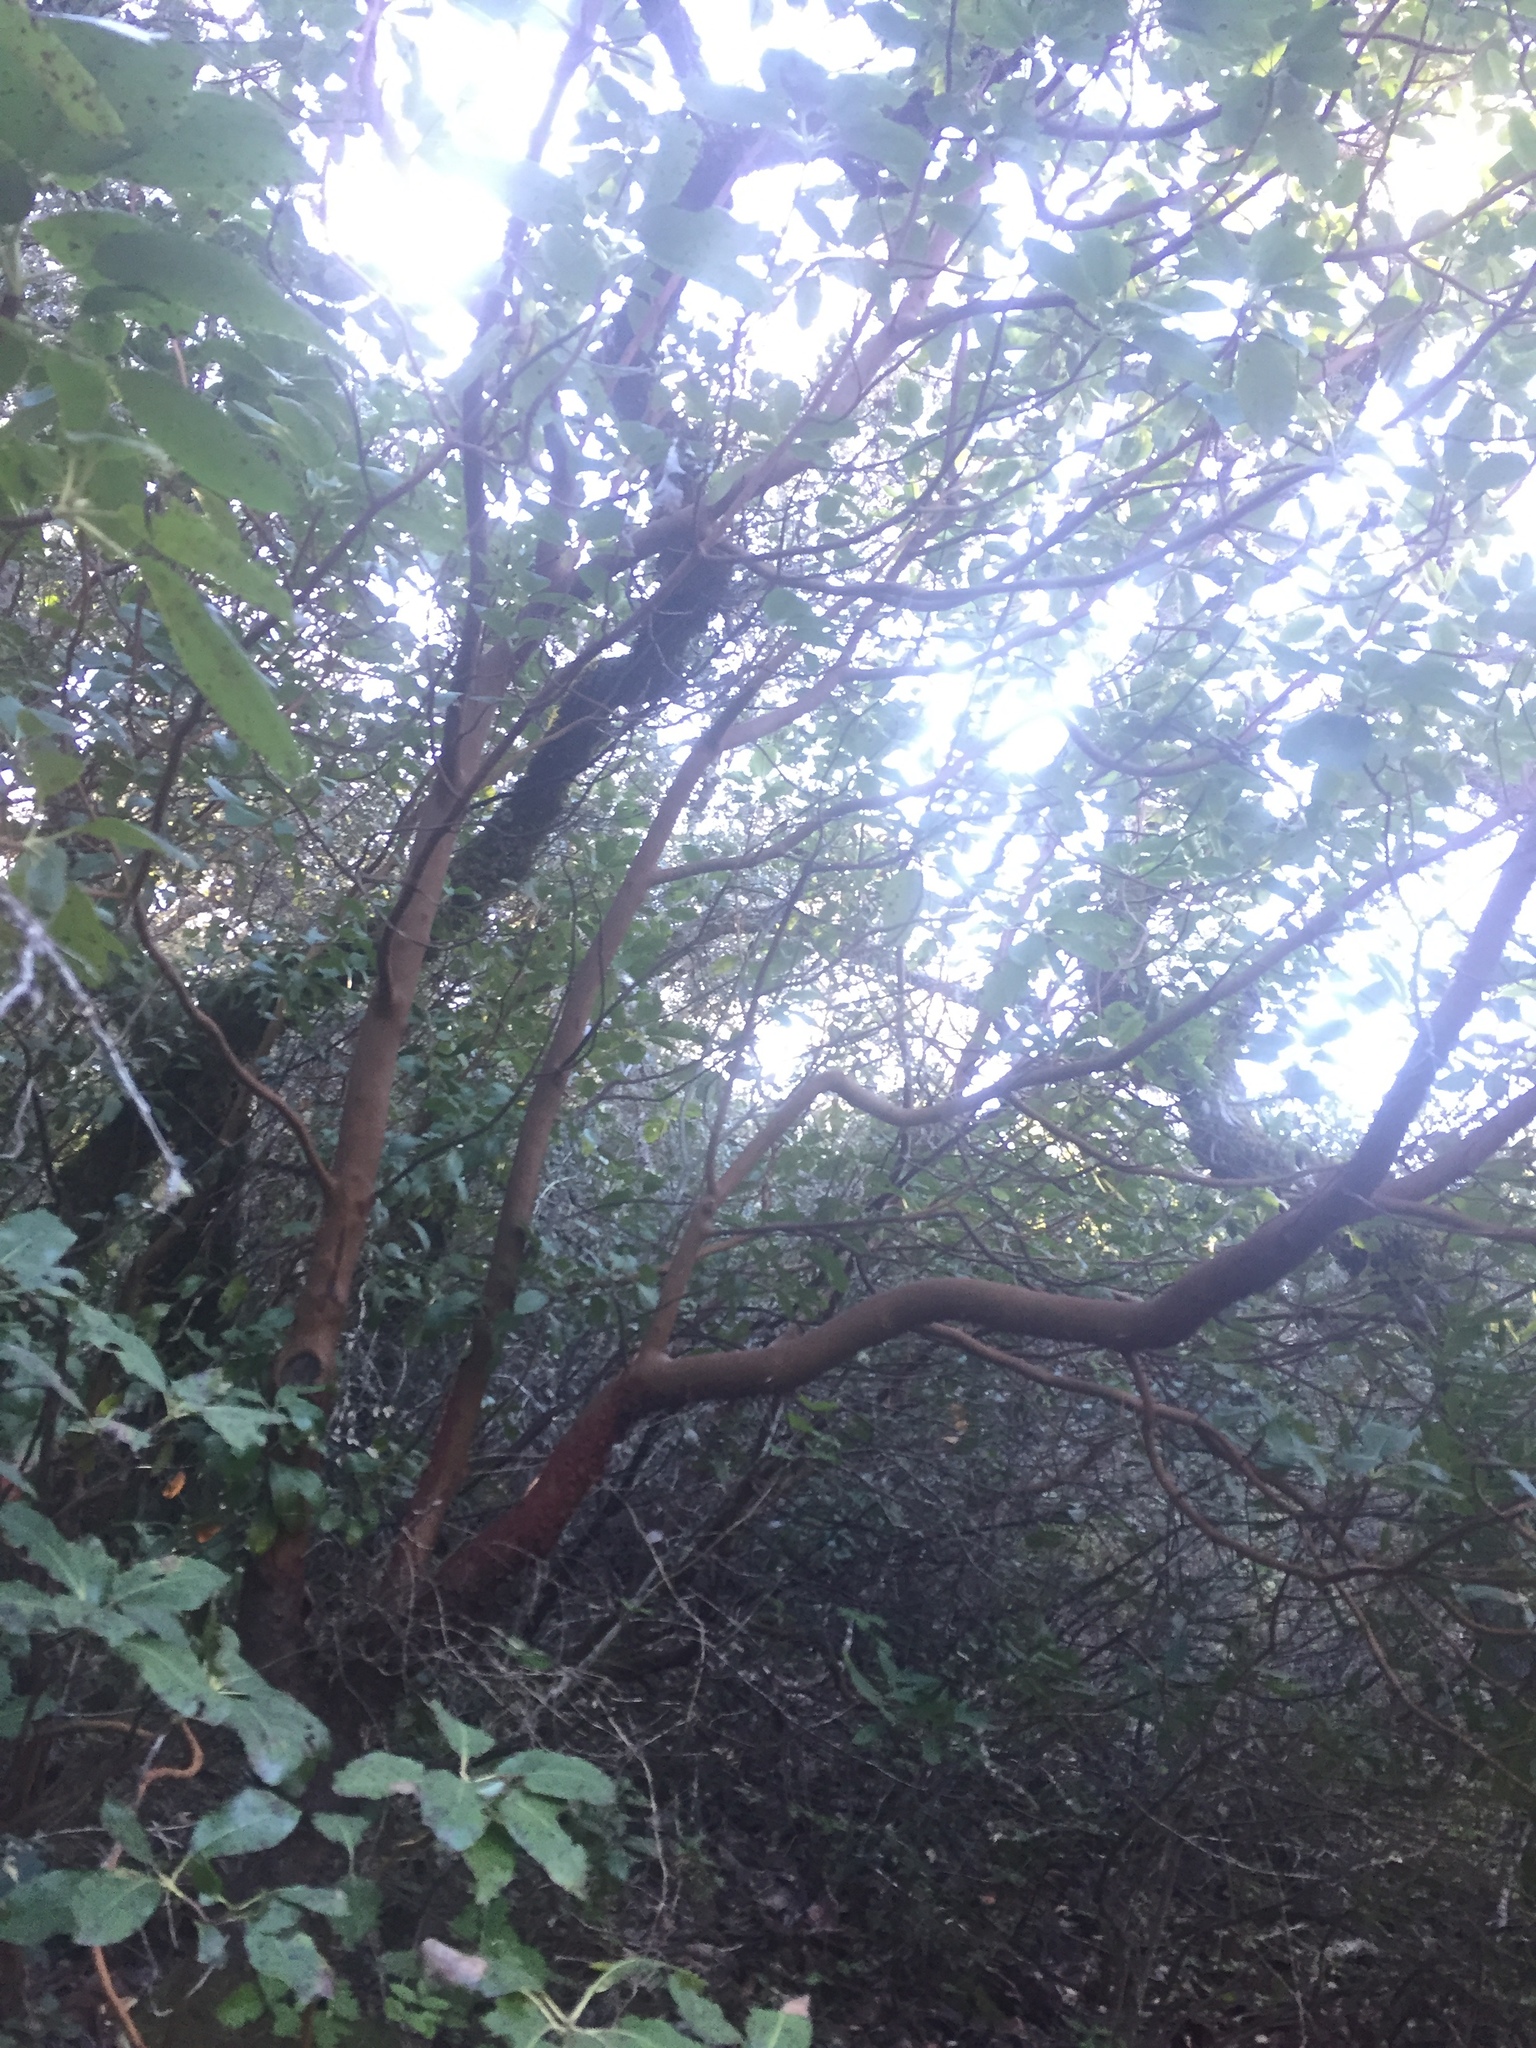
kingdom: Plantae
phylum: Tracheophyta
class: Magnoliopsida
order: Ericales
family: Ericaceae
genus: Arbutus
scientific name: Arbutus menziesii
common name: Pacific madrone
